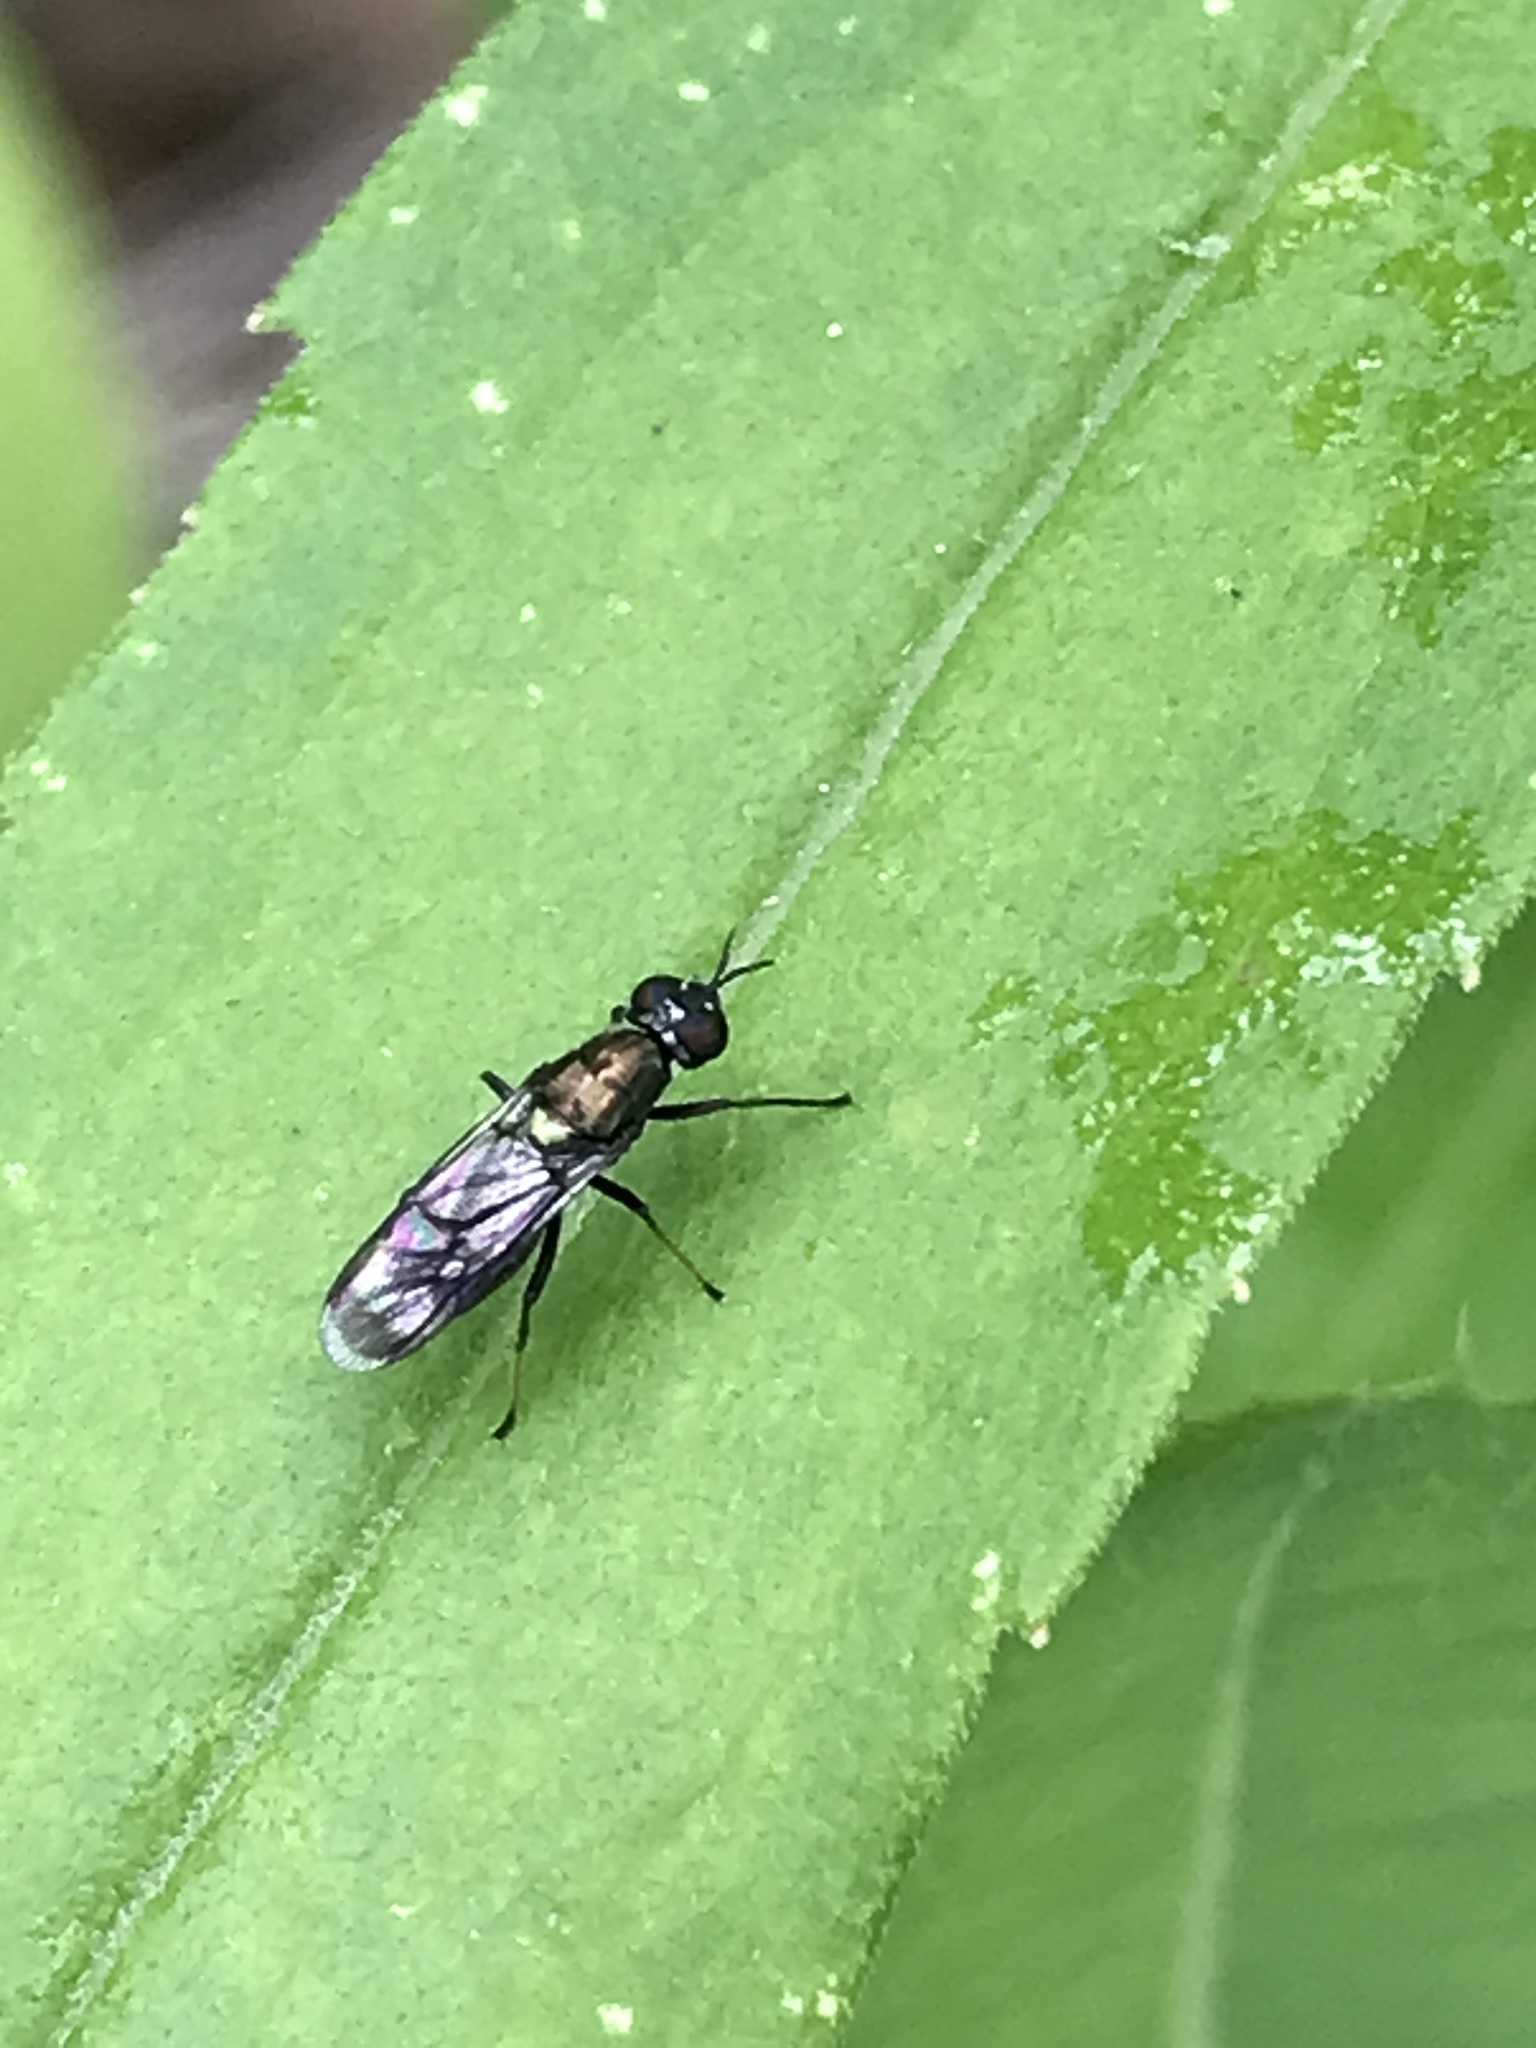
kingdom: Animalia
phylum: Arthropoda
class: Insecta
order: Diptera
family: Stratiomyidae
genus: Myxosargus
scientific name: Myxosargus nigricormis
